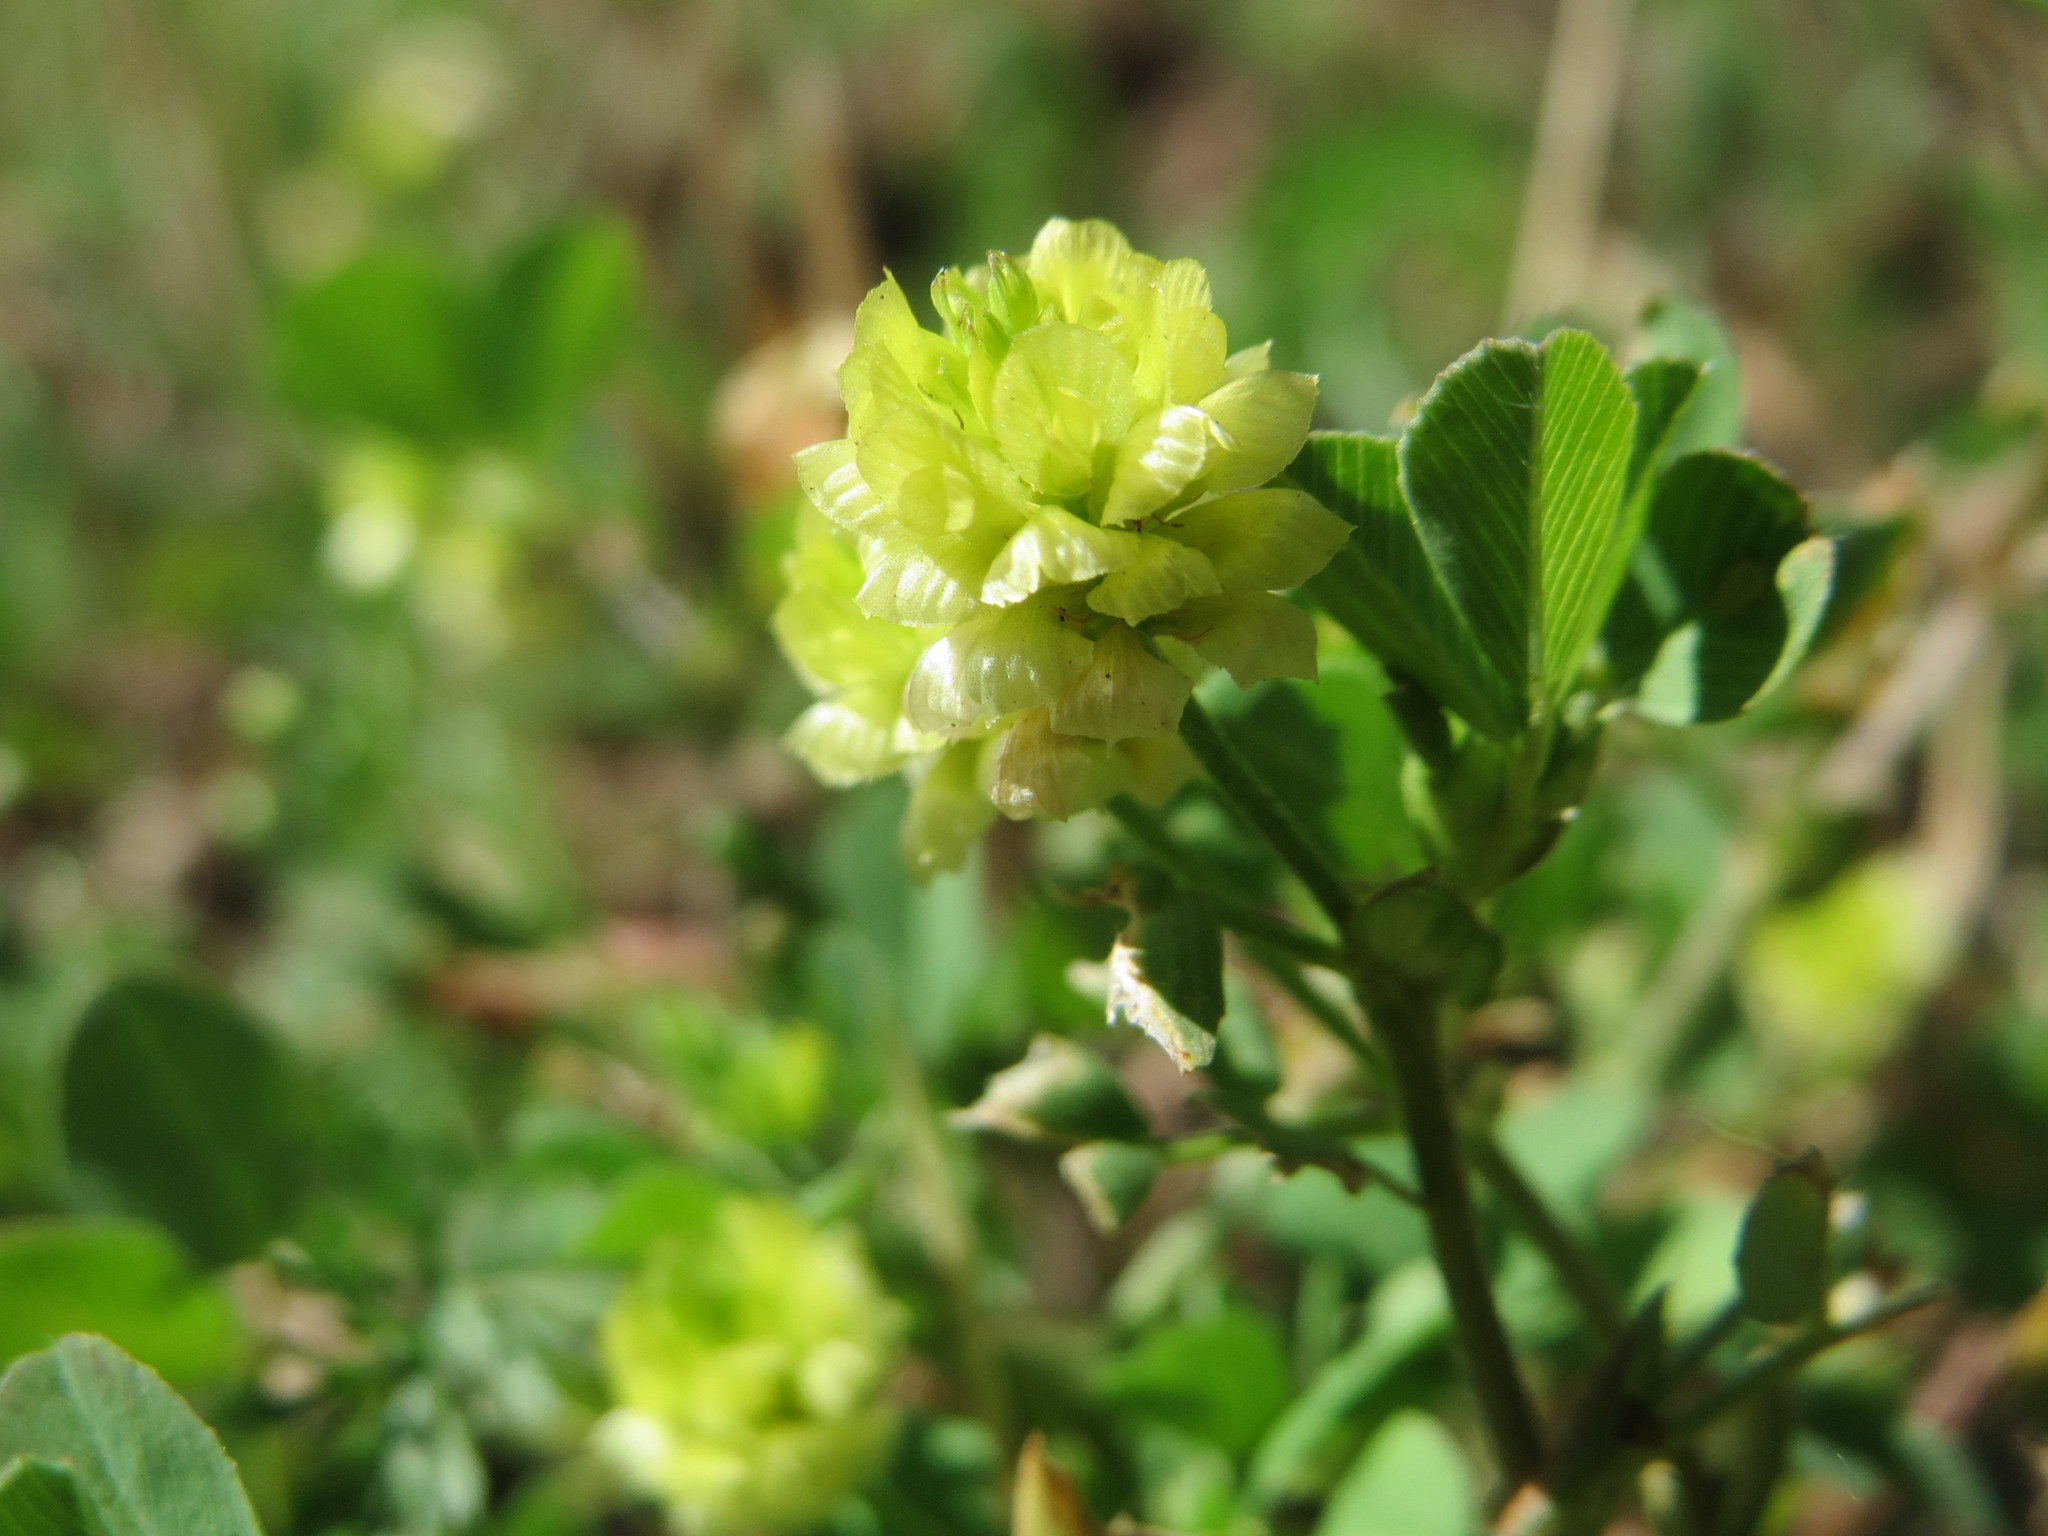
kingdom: Plantae
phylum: Tracheophyta
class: Magnoliopsida
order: Fabales
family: Fabaceae
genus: Trifolium
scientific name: Trifolium campestre
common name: Field clover
